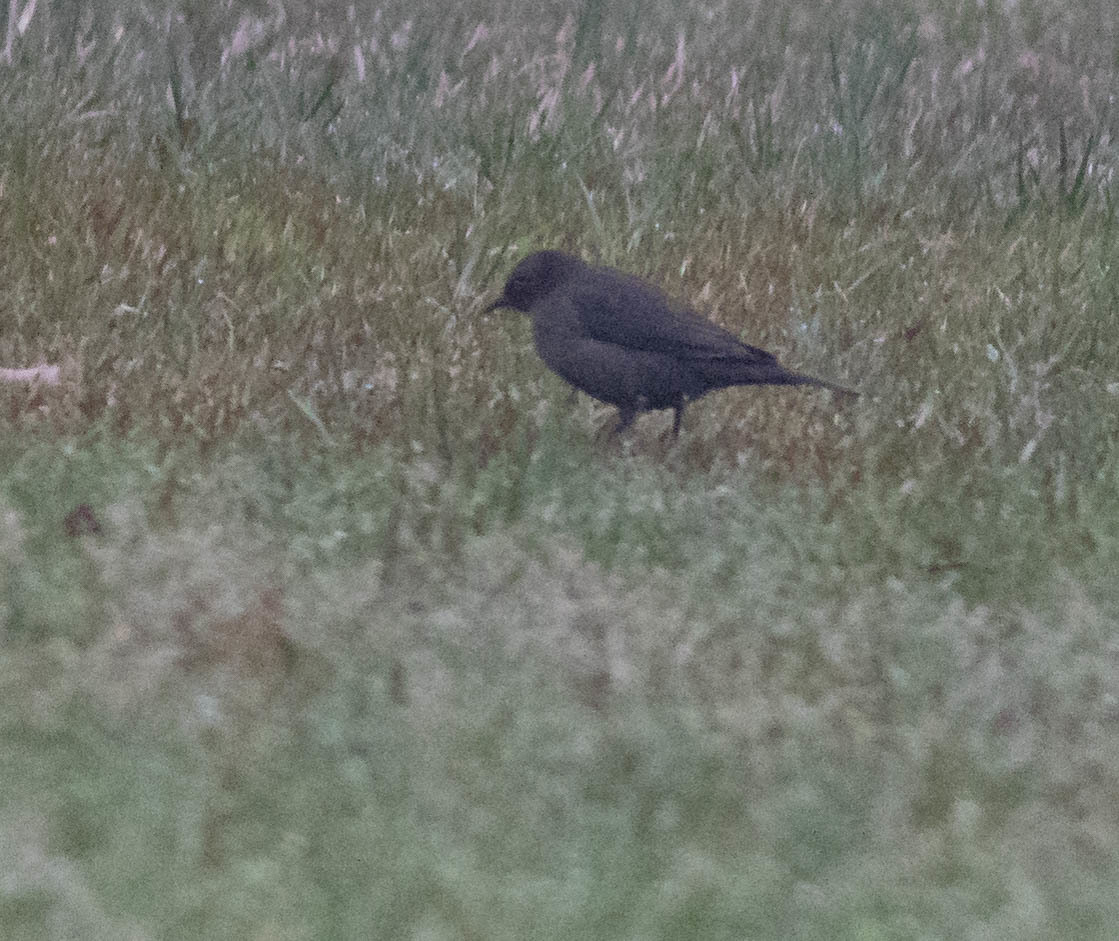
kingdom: Animalia
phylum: Chordata
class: Aves
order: Passeriformes
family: Icteridae
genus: Euphagus
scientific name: Euphagus carolinus
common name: Rusty blackbird
